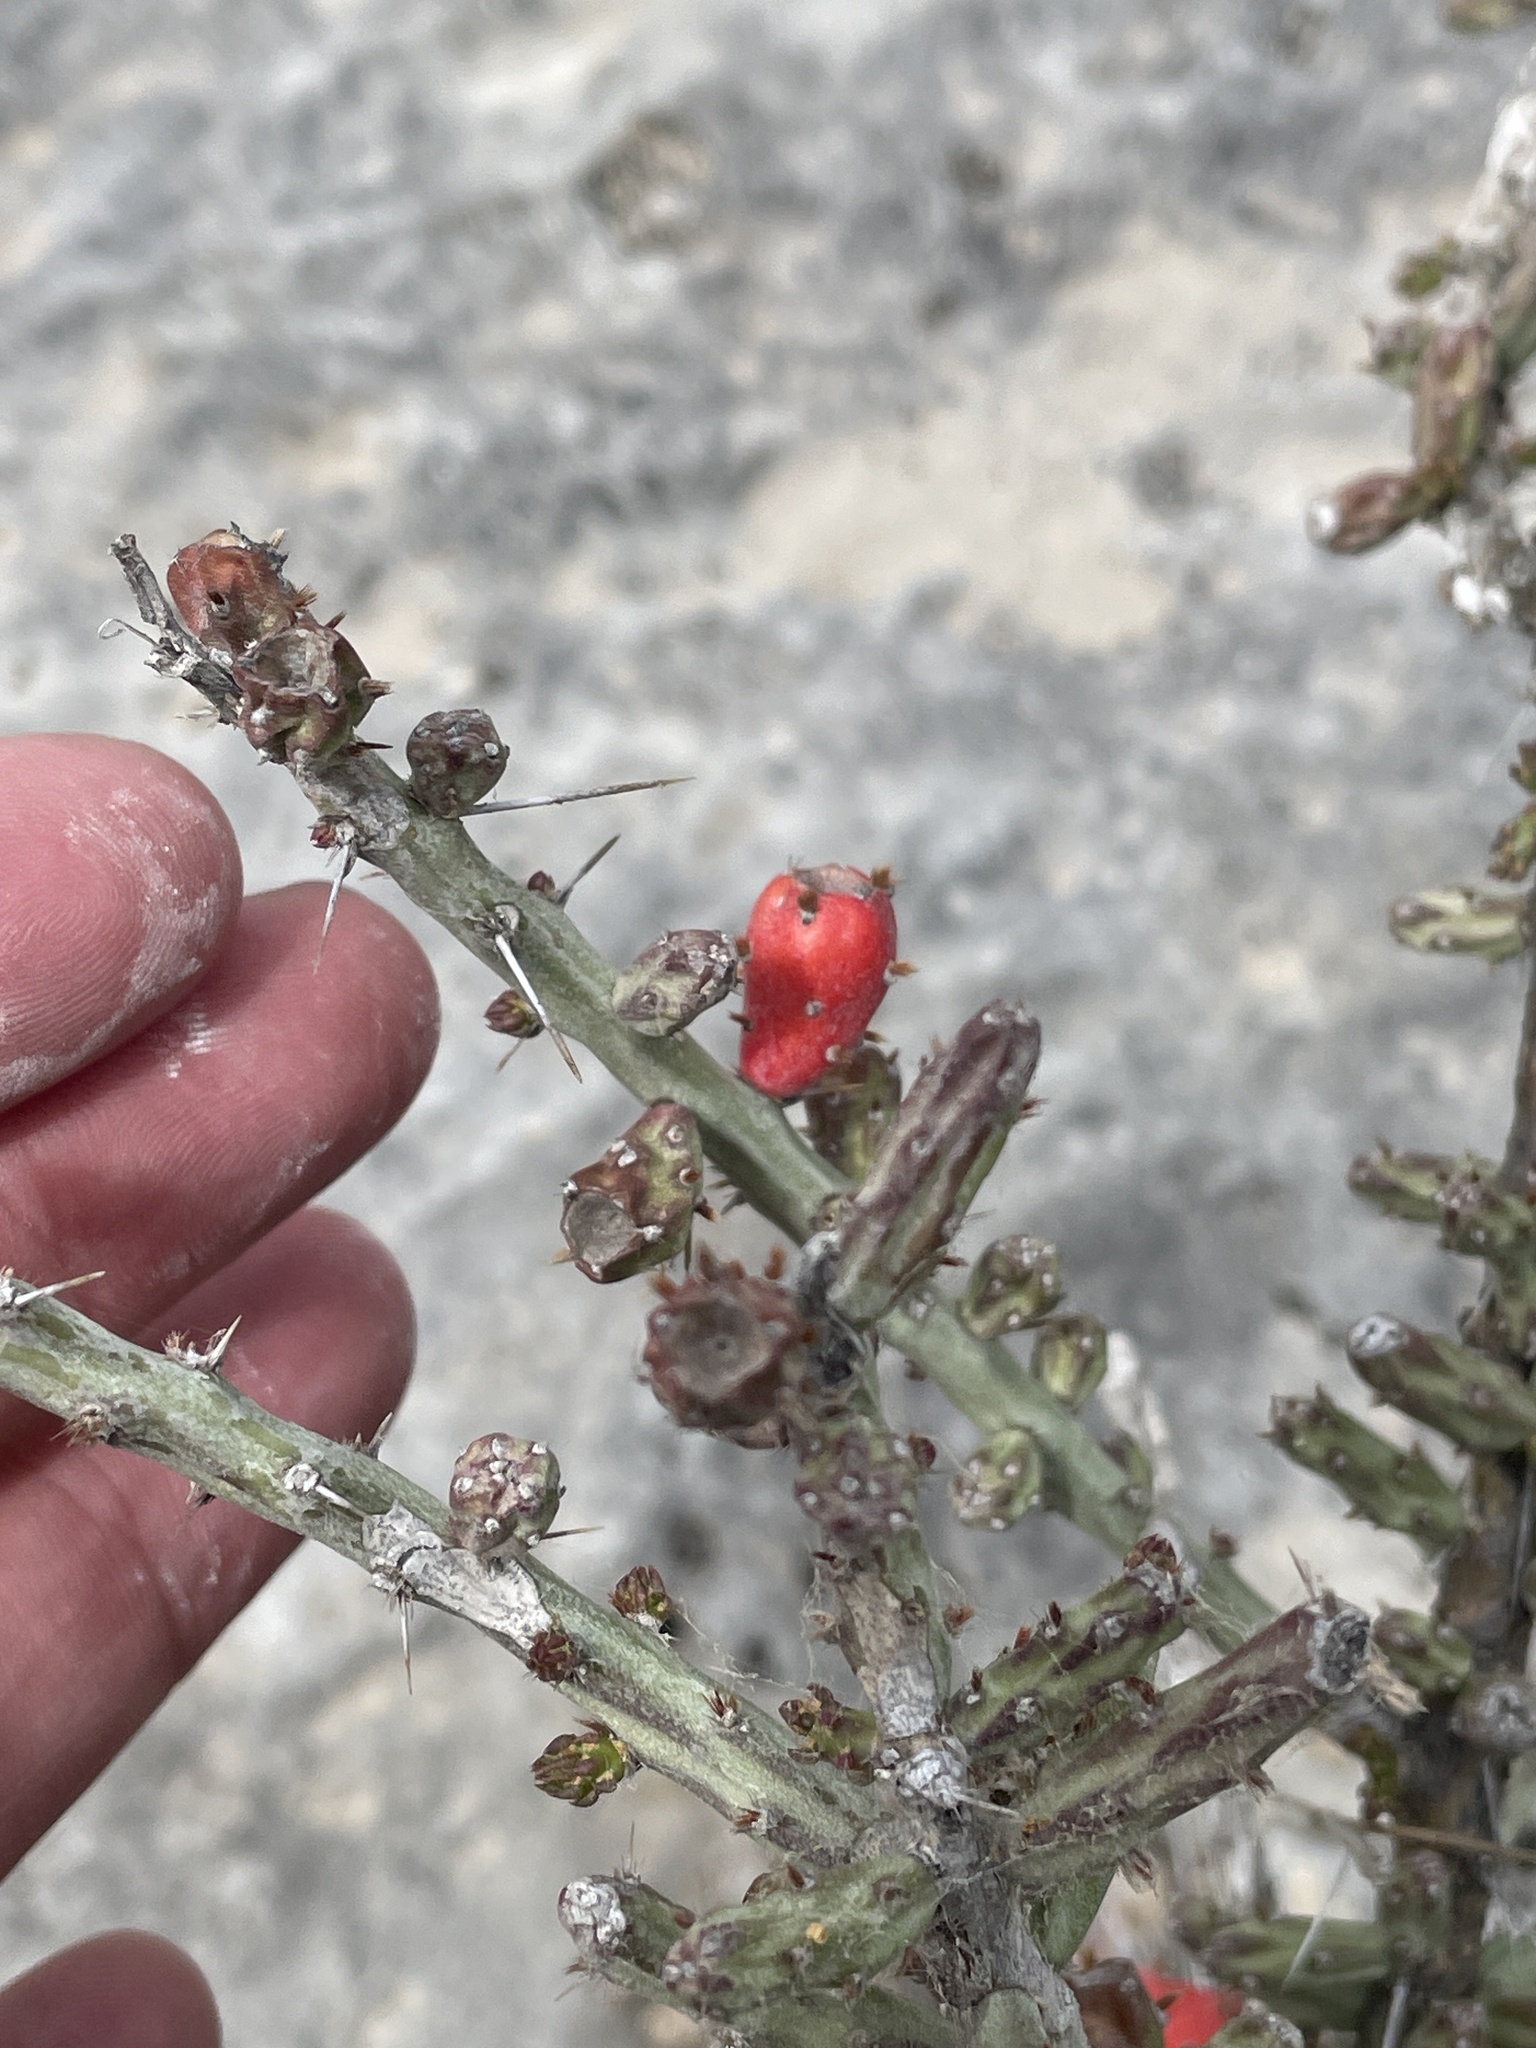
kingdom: Plantae
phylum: Tracheophyta
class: Magnoliopsida
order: Caryophyllales
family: Cactaceae
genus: Cylindropuntia
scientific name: Cylindropuntia leptocaulis
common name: Christmas cactus
